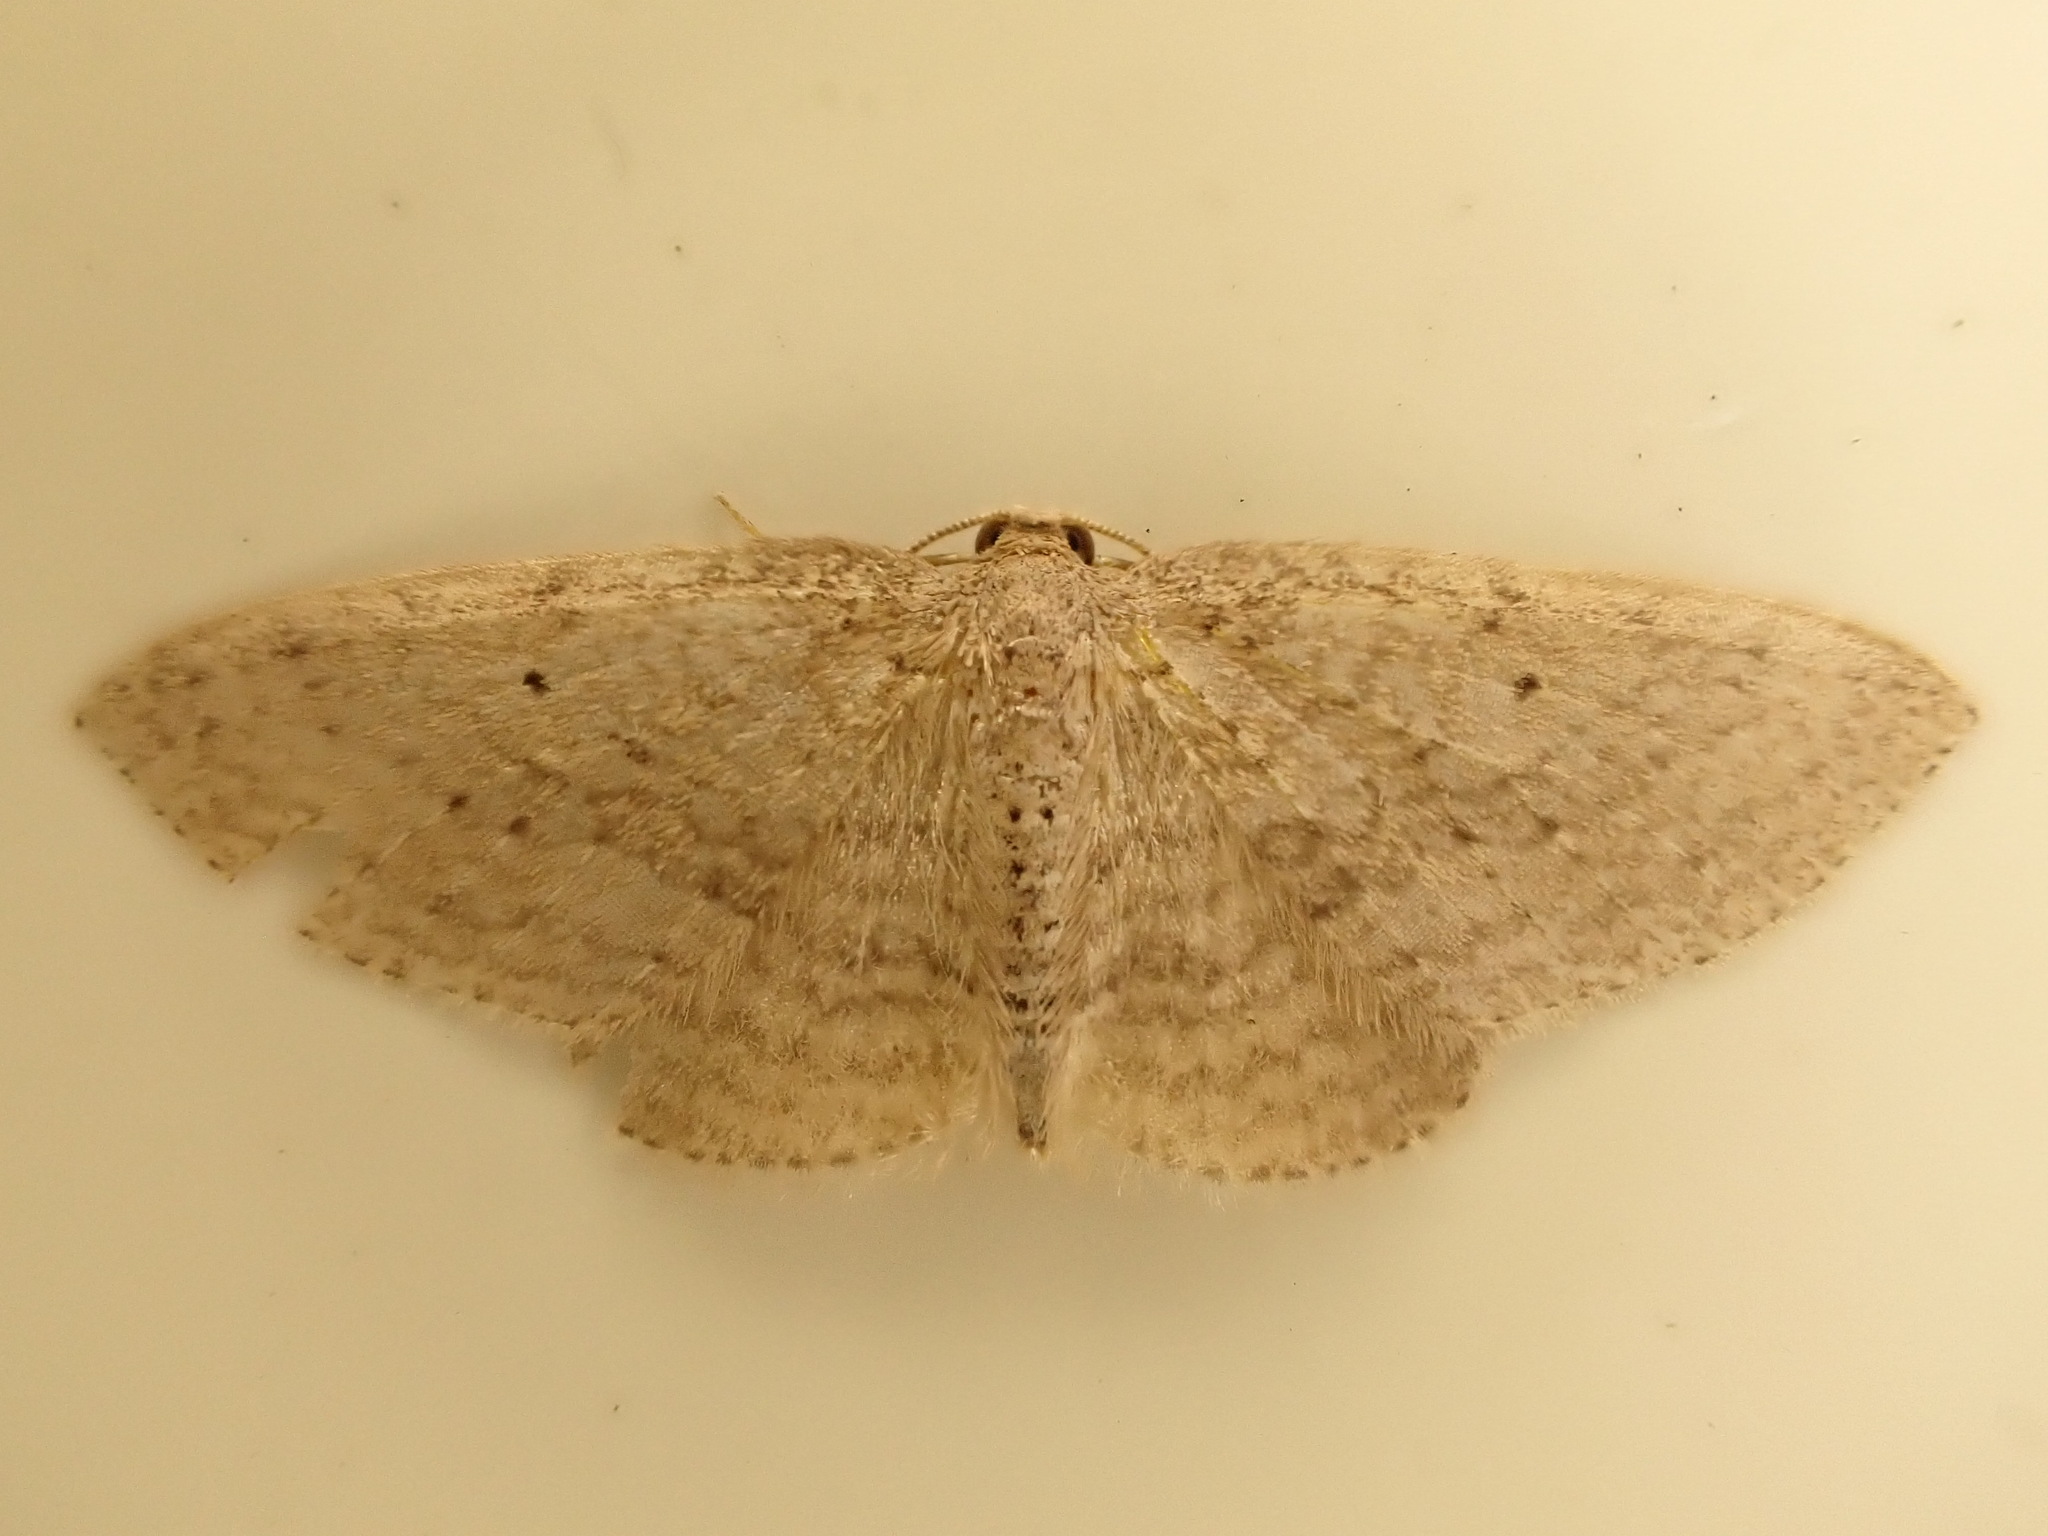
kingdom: Animalia
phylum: Arthropoda
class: Insecta
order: Lepidoptera
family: Geometridae
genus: Poecilasthena
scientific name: Poecilasthena schistaria
